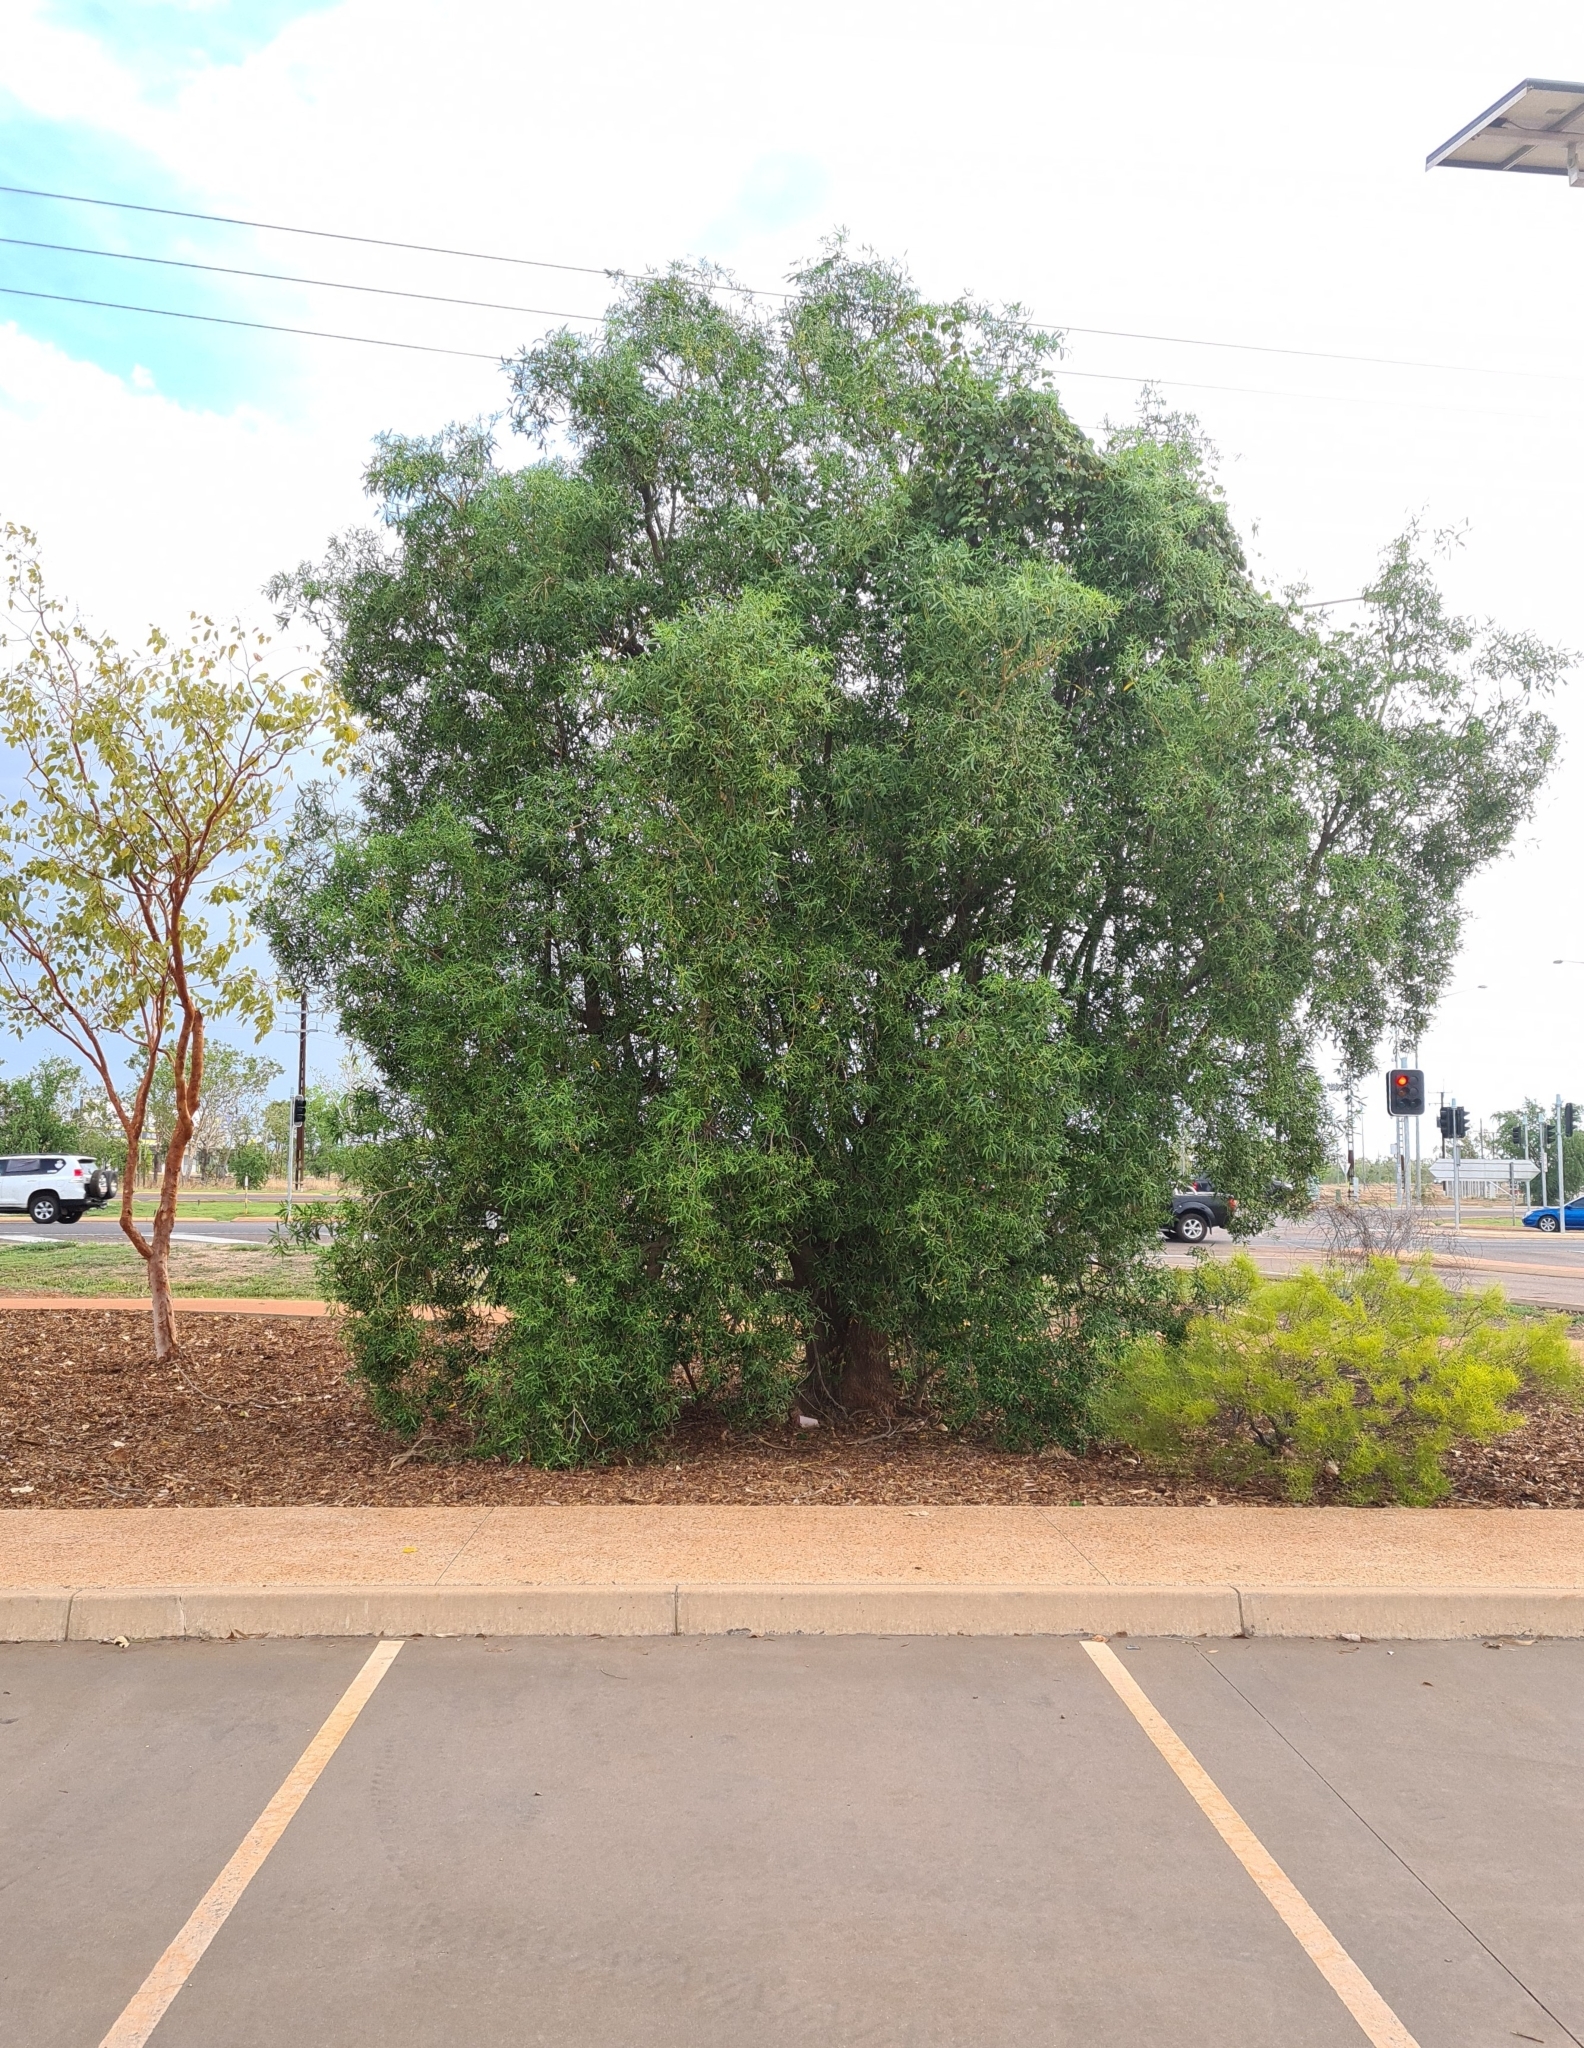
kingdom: Plantae
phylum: Tracheophyta
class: Magnoliopsida
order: Gentianales
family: Apocynaceae
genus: Alstonia
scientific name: Alstonia actinophylla
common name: Milkwood
